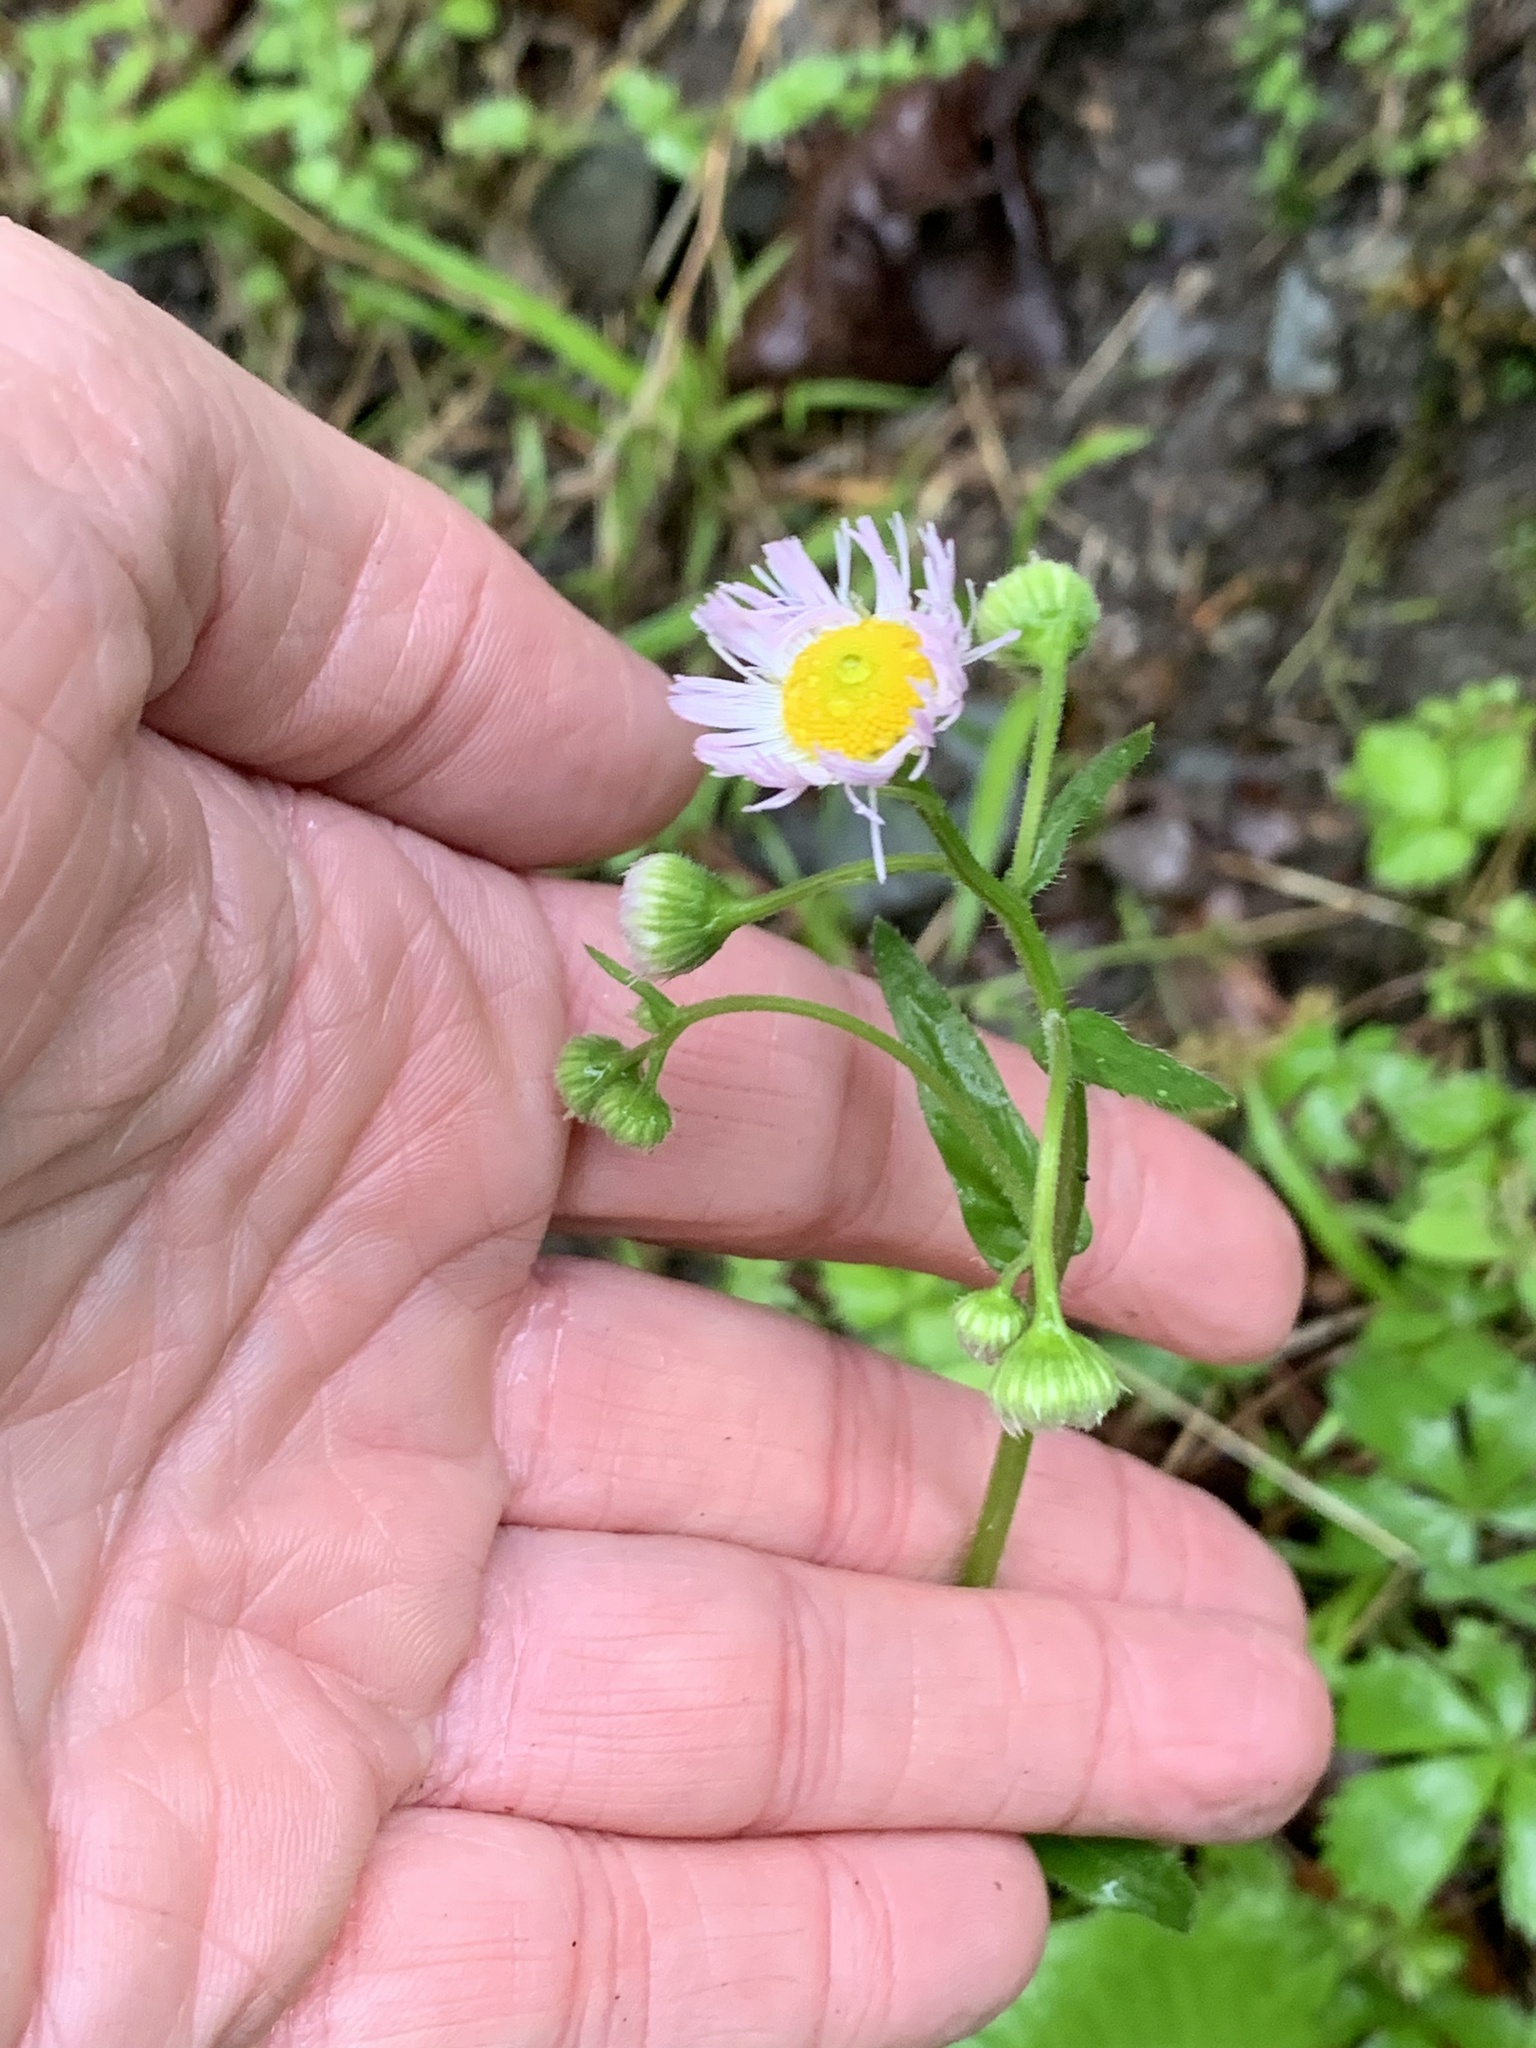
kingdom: Plantae
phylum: Tracheophyta
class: Magnoliopsida
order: Asterales
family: Asteraceae
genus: Erigeron
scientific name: Erigeron philadelphicus
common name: Robin's-plantain
